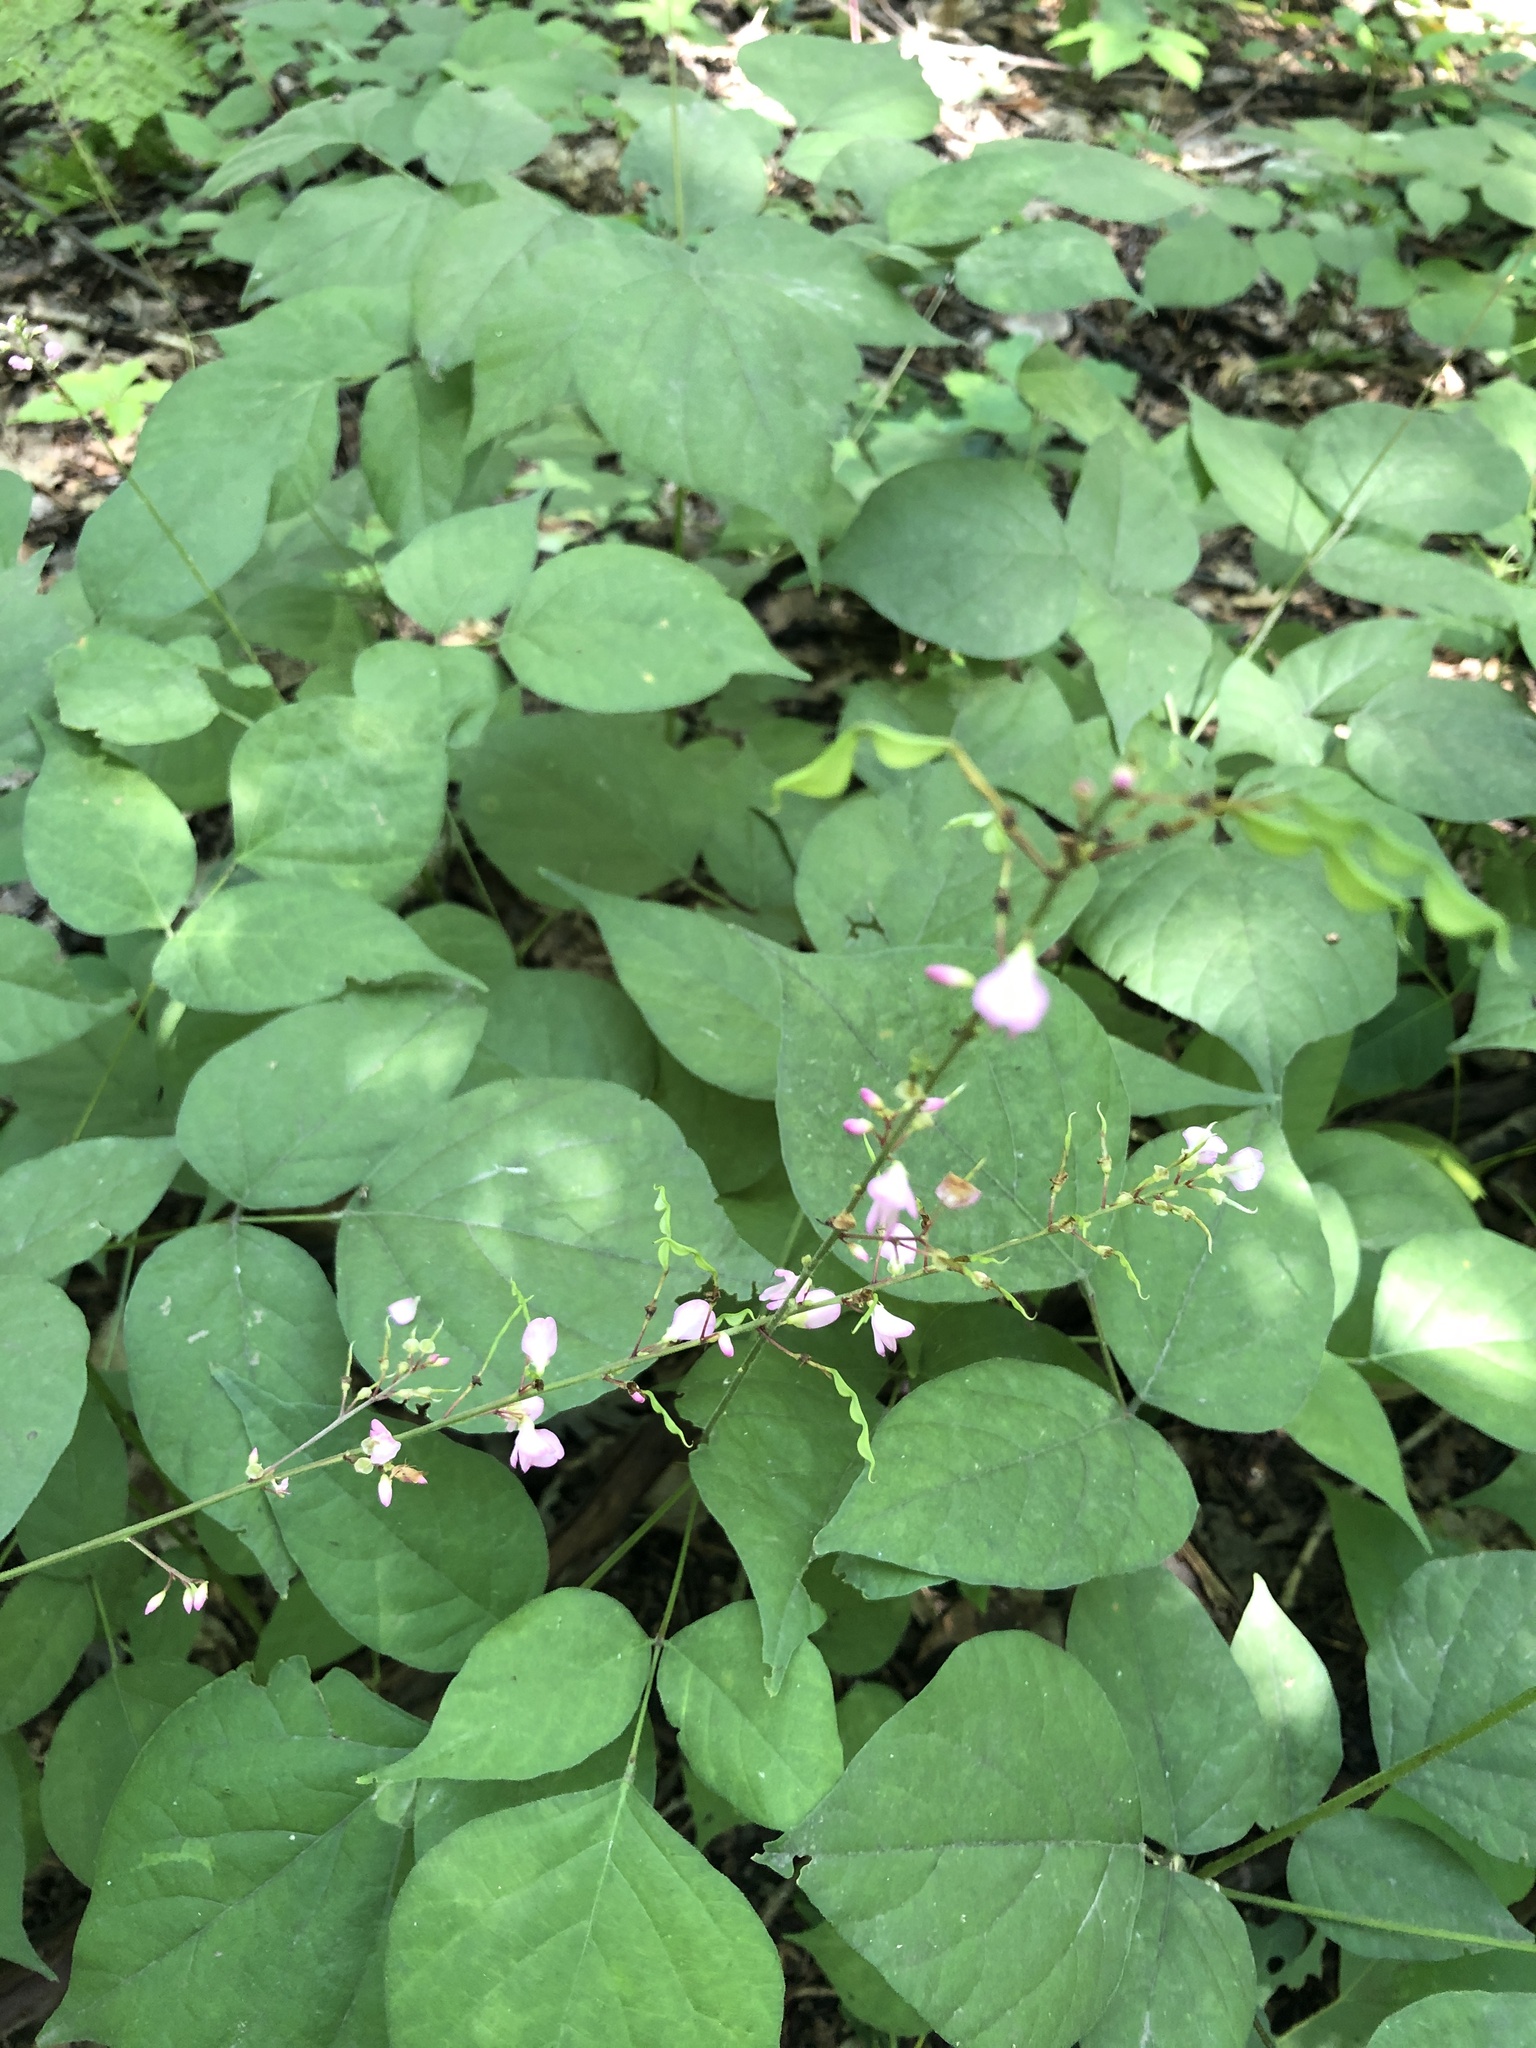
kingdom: Plantae
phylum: Tracheophyta
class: Magnoliopsida
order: Fabales
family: Fabaceae
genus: Hylodesmum
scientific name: Hylodesmum glutinosum
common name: Clustered-leaved tick-trefoil
